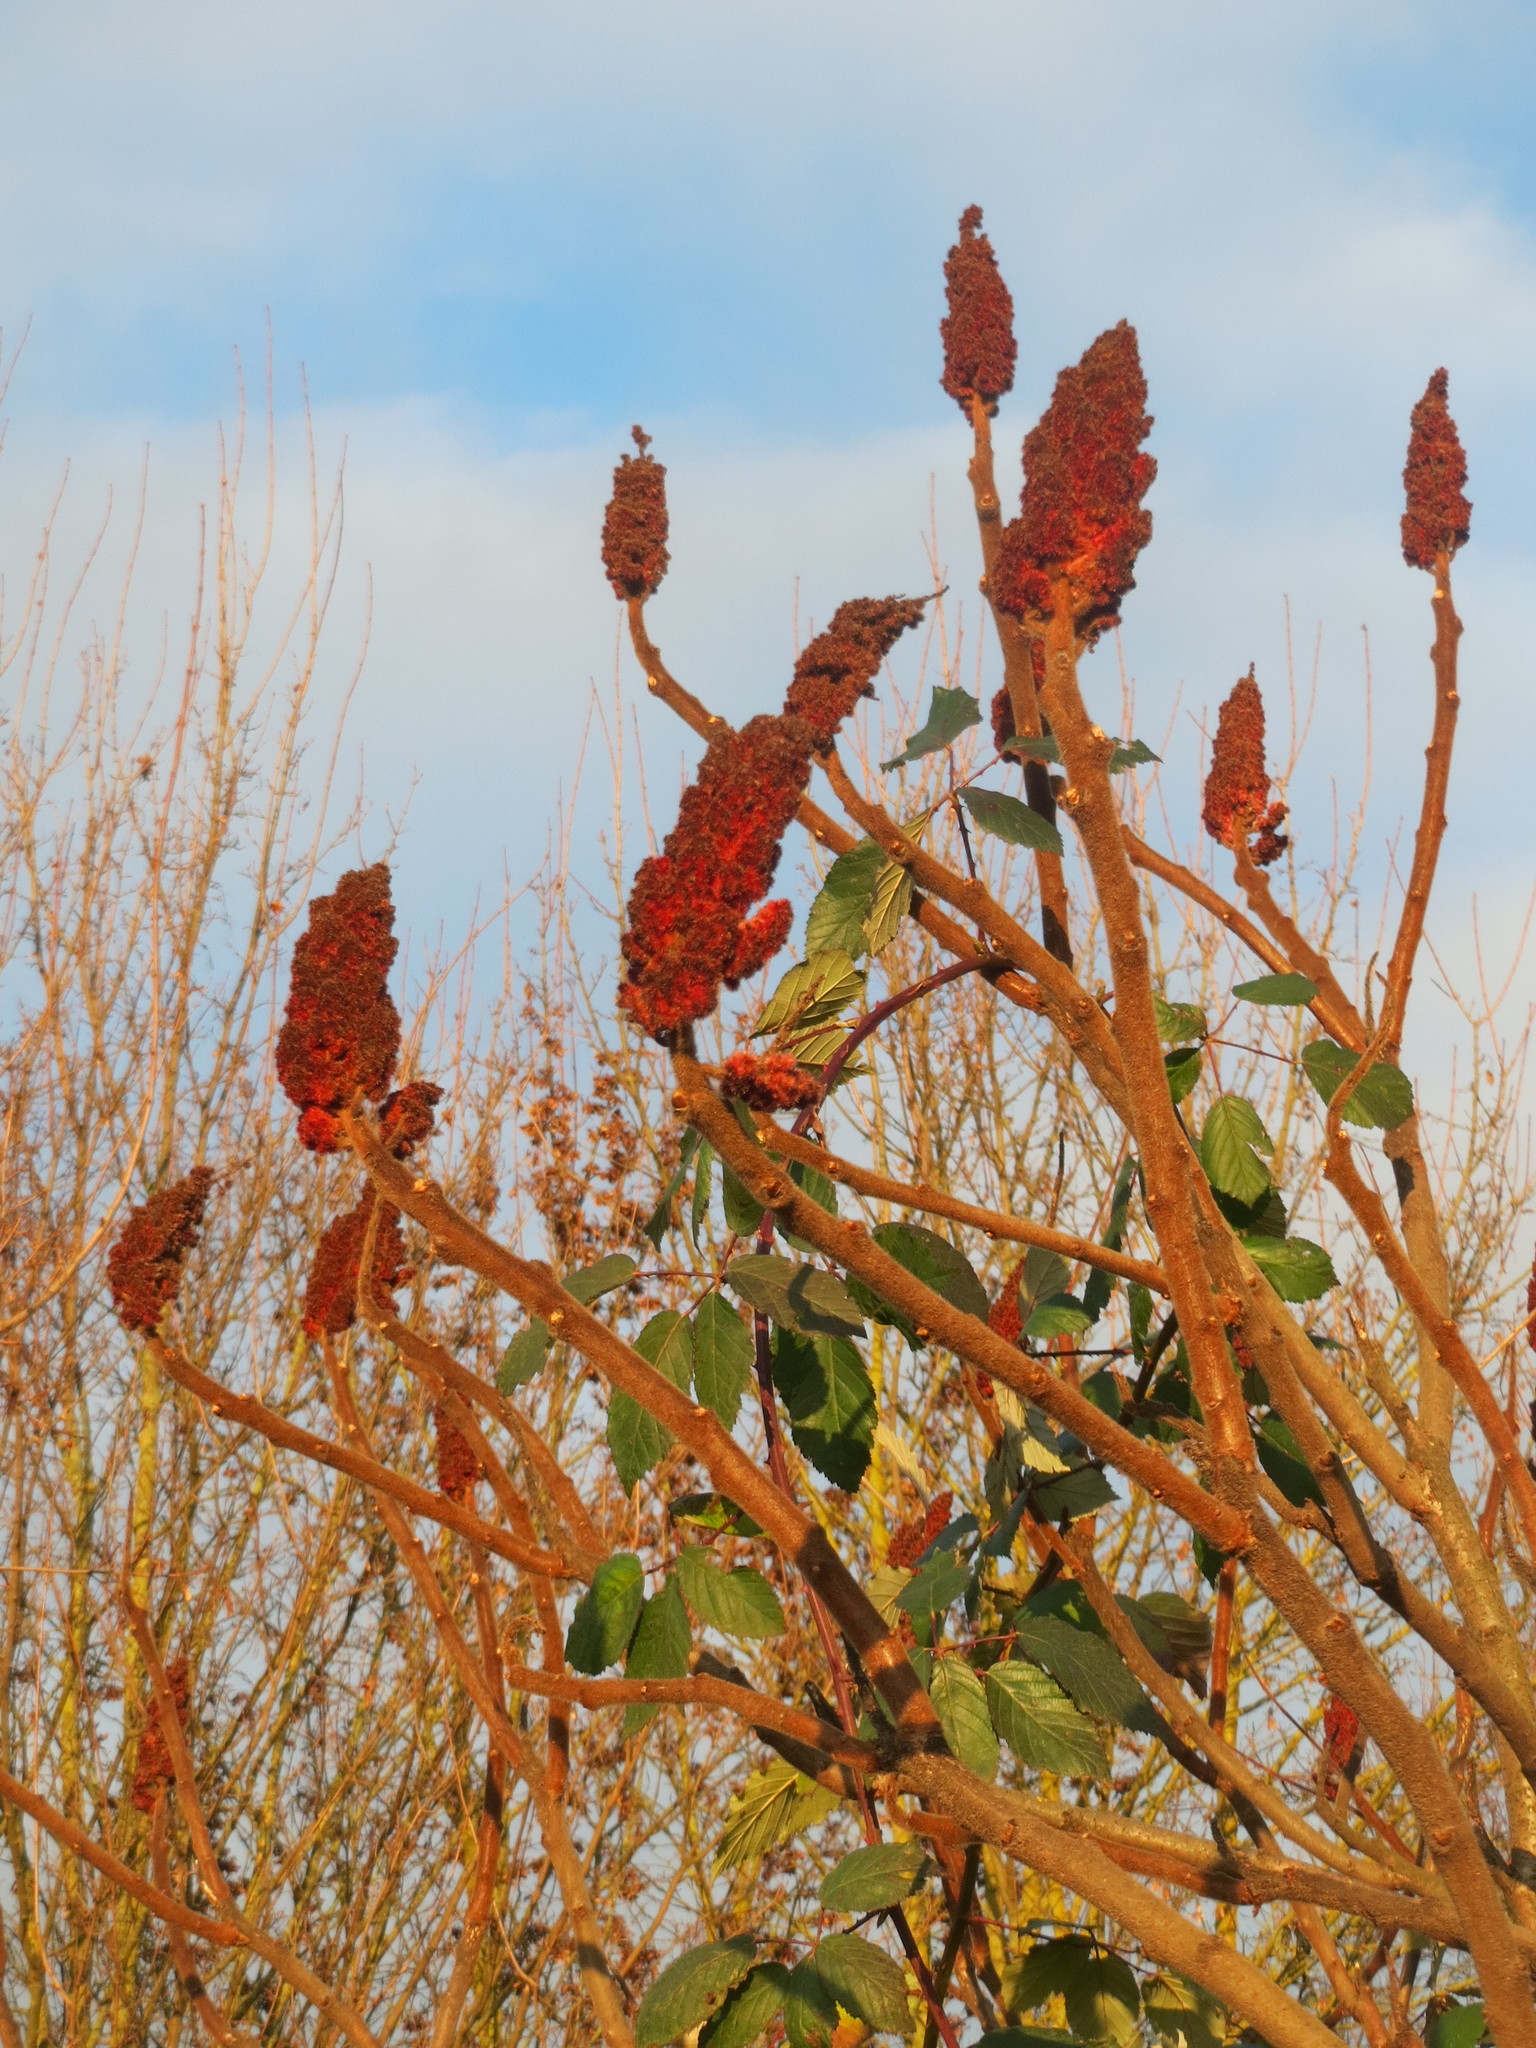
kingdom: Plantae
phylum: Tracheophyta
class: Magnoliopsida
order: Sapindales
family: Anacardiaceae
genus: Rhus
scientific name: Rhus typhina
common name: Staghorn sumac
